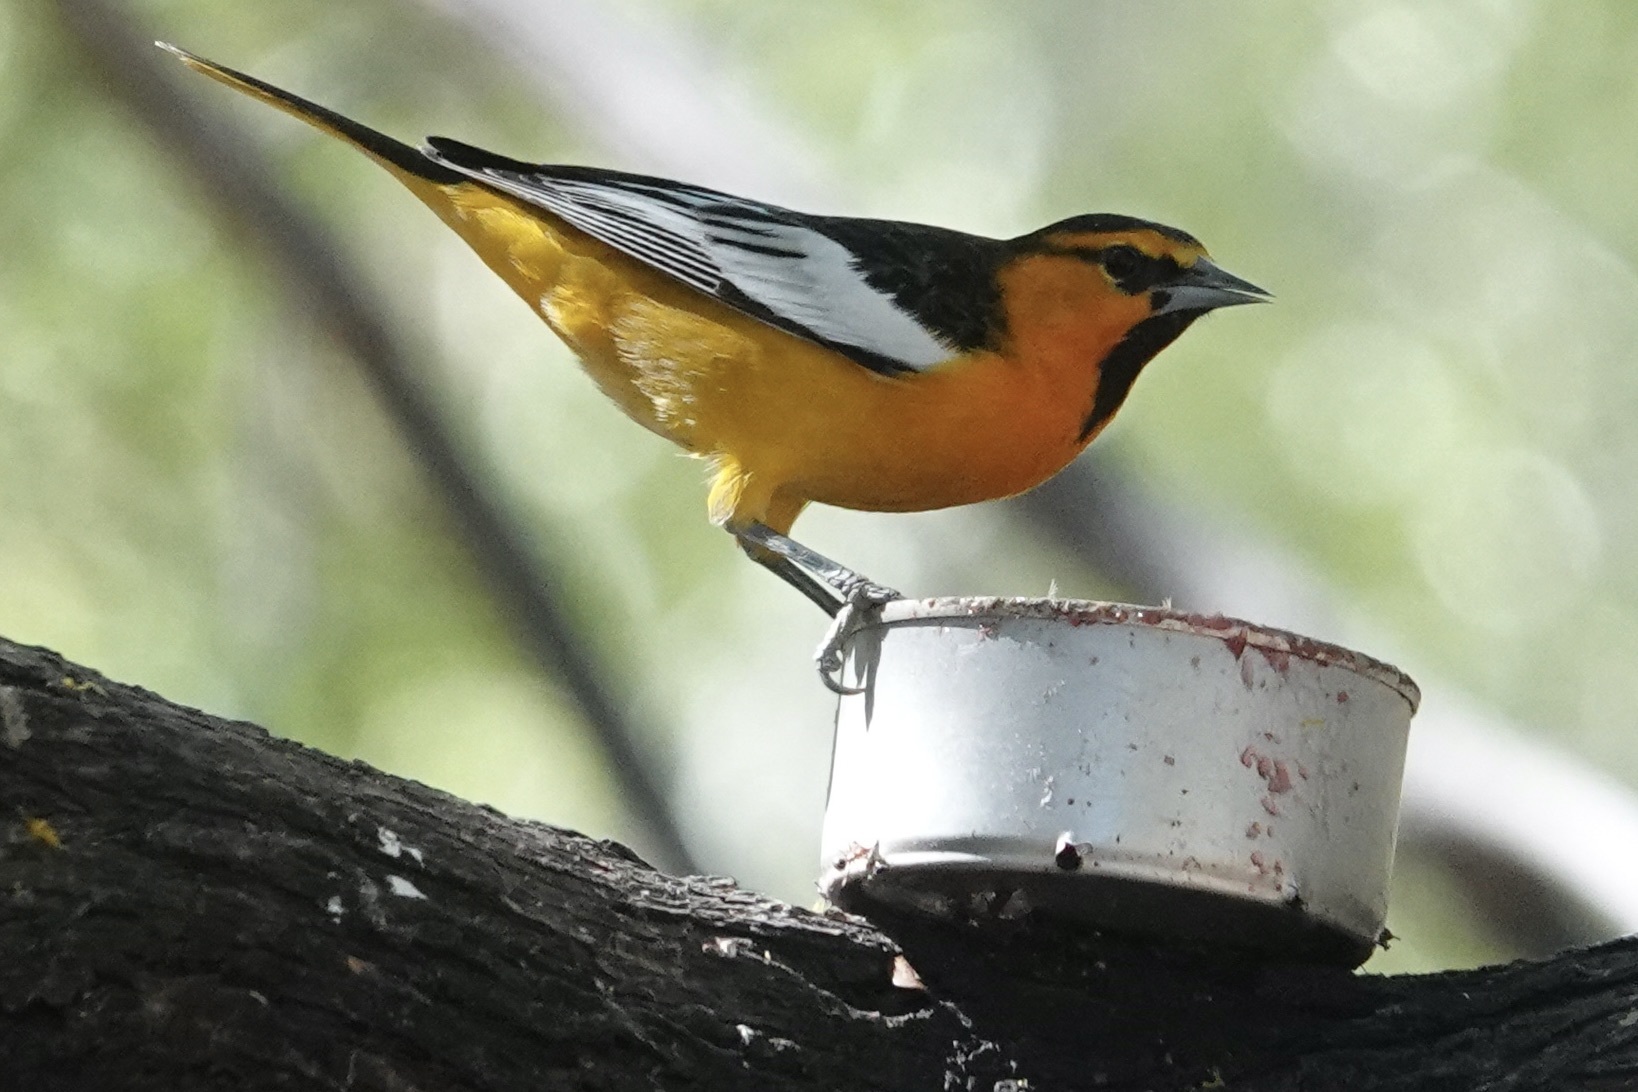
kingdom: Animalia
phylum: Chordata
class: Aves
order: Passeriformes
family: Icteridae
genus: Icterus
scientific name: Icterus bullockii
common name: Bullock's oriole
